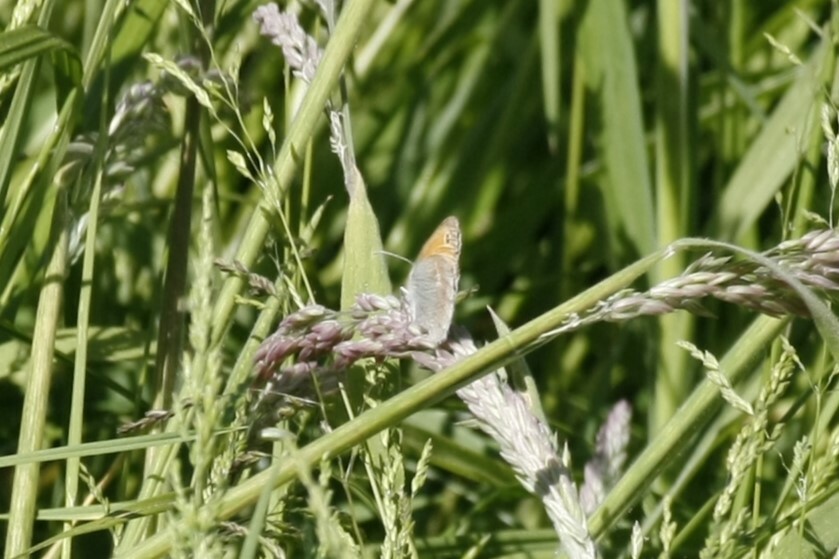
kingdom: Animalia
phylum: Arthropoda
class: Insecta
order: Lepidoptera
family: Nymphalidae
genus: Coenonympha
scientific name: Coenonympha pamphilus
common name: Small heath
